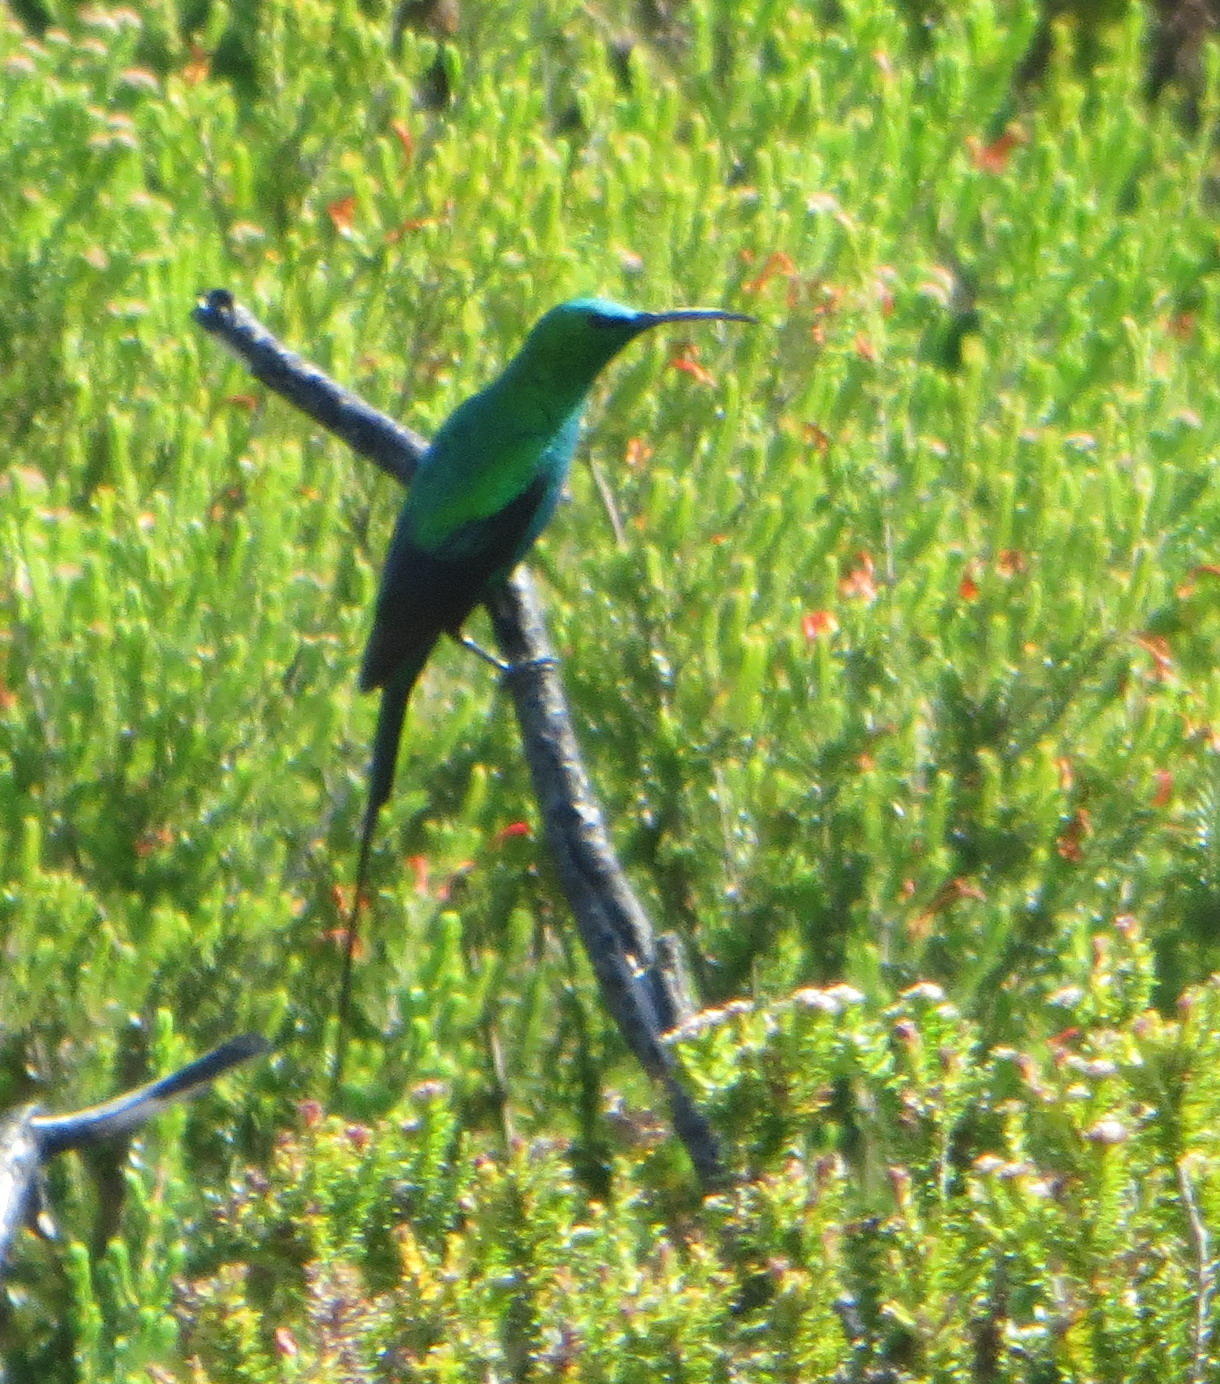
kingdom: Animalia
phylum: Chordata
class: Aves
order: Passeriformes
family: Nectariniidae
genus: Nectarinia
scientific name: Nectarinia famosa
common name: Malachite sunbird
